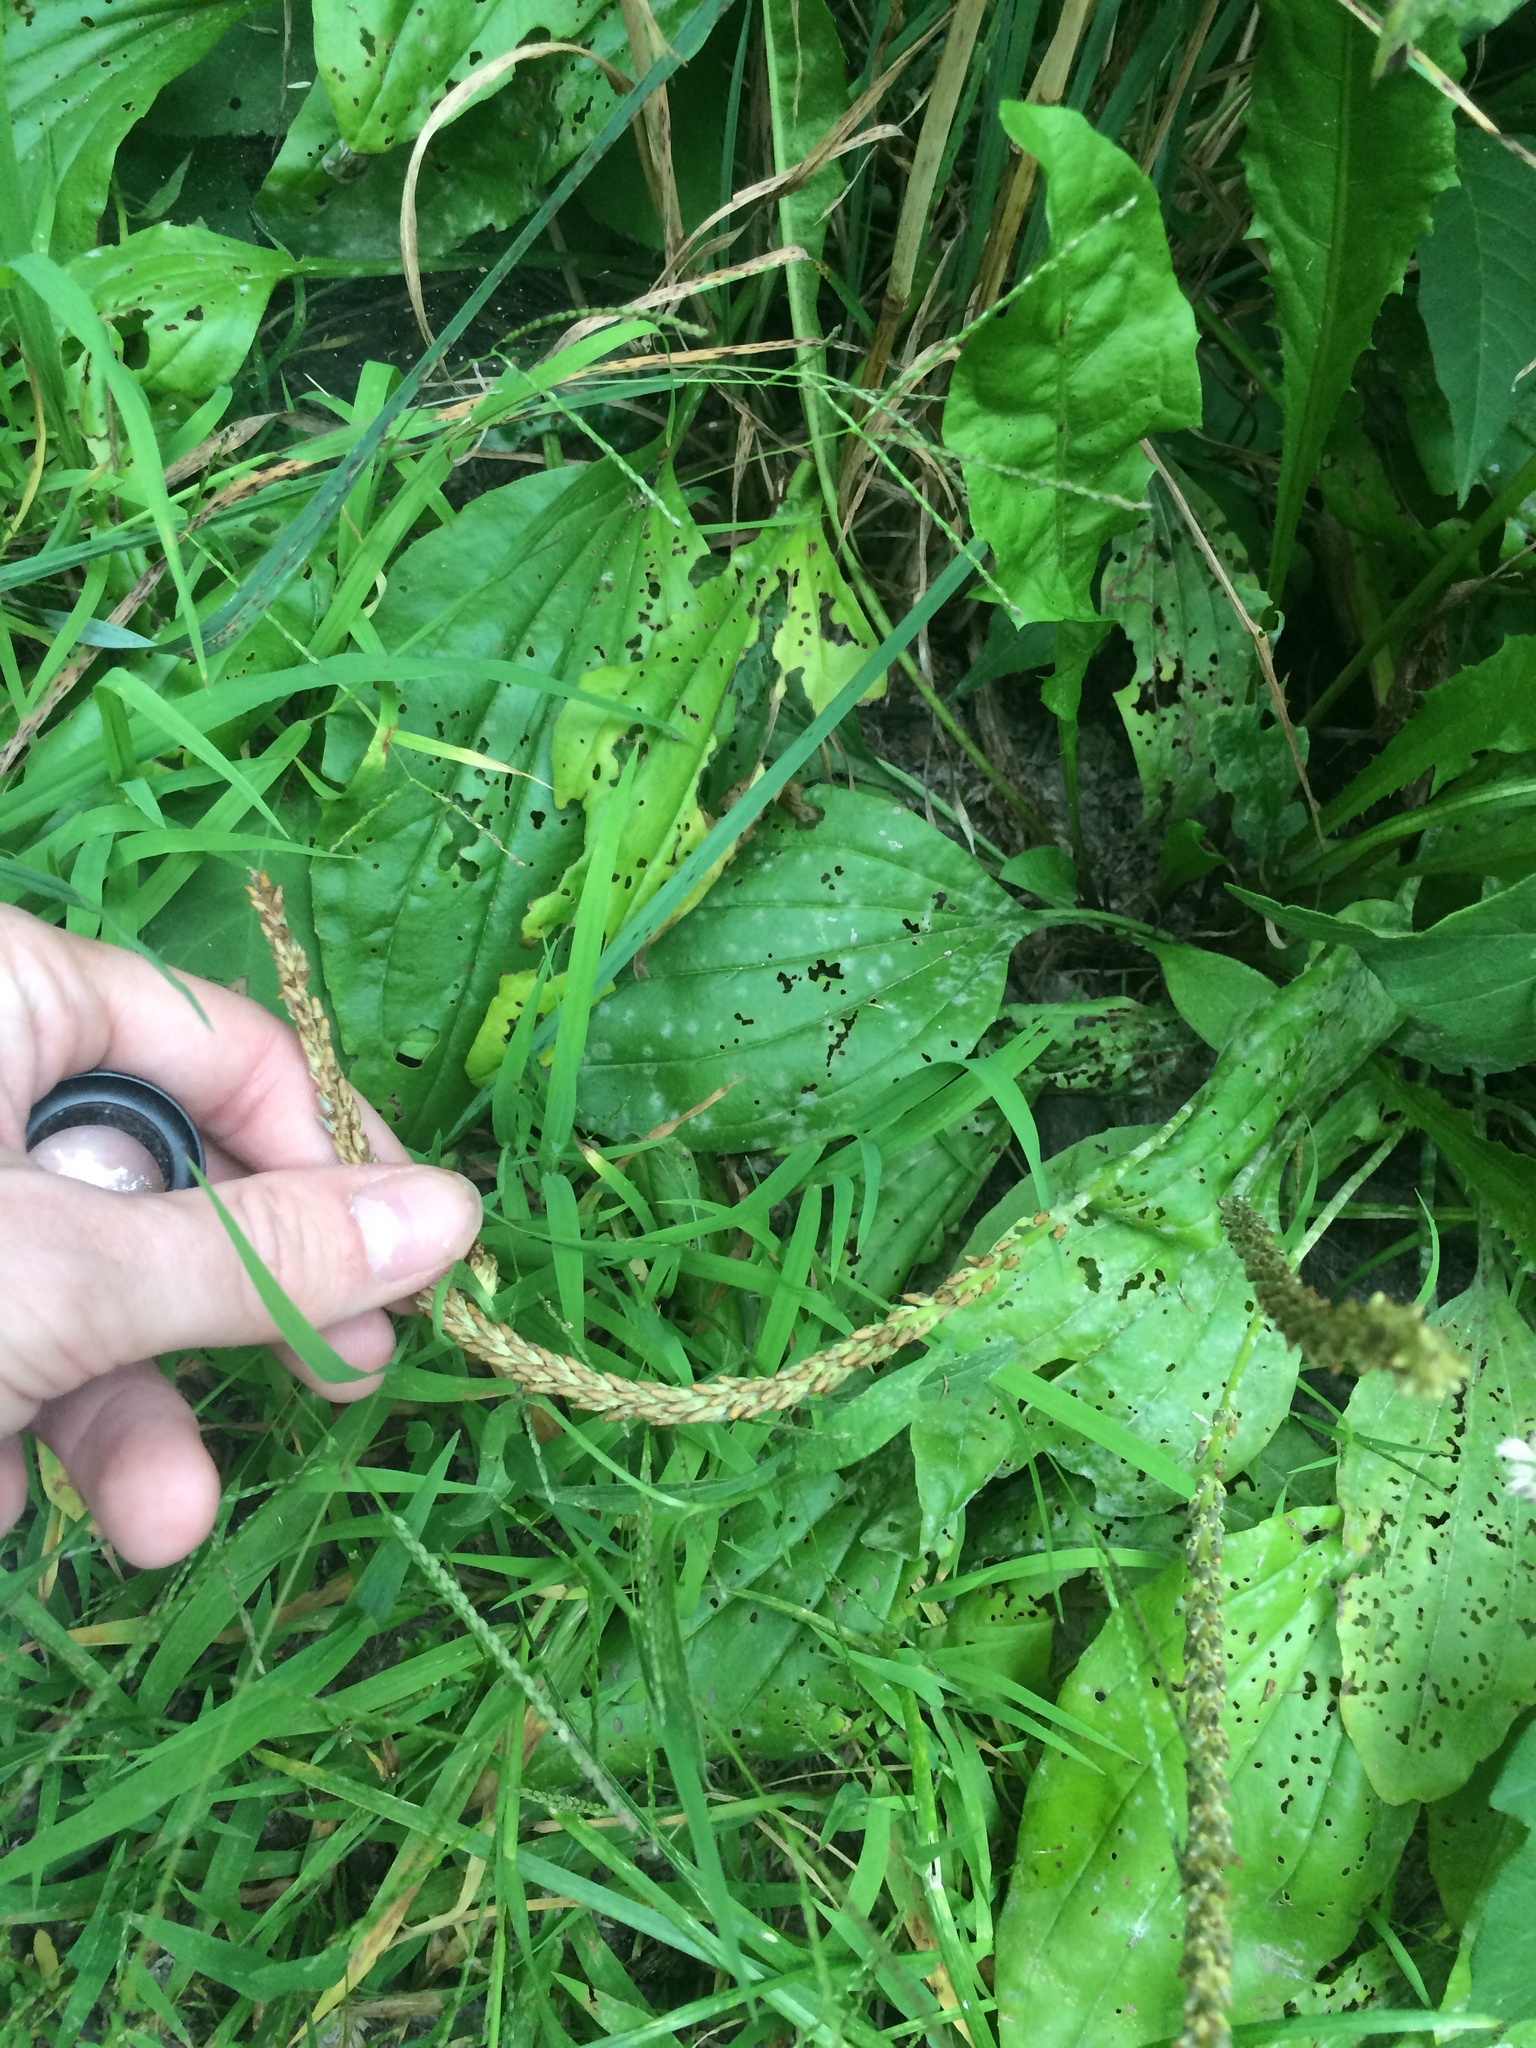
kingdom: Plantae
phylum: Tracheophyta
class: Magnoliopsida
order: Lamiales
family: Plantaginaceae
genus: Plantago
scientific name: Plantago rugelii
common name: American plantain
